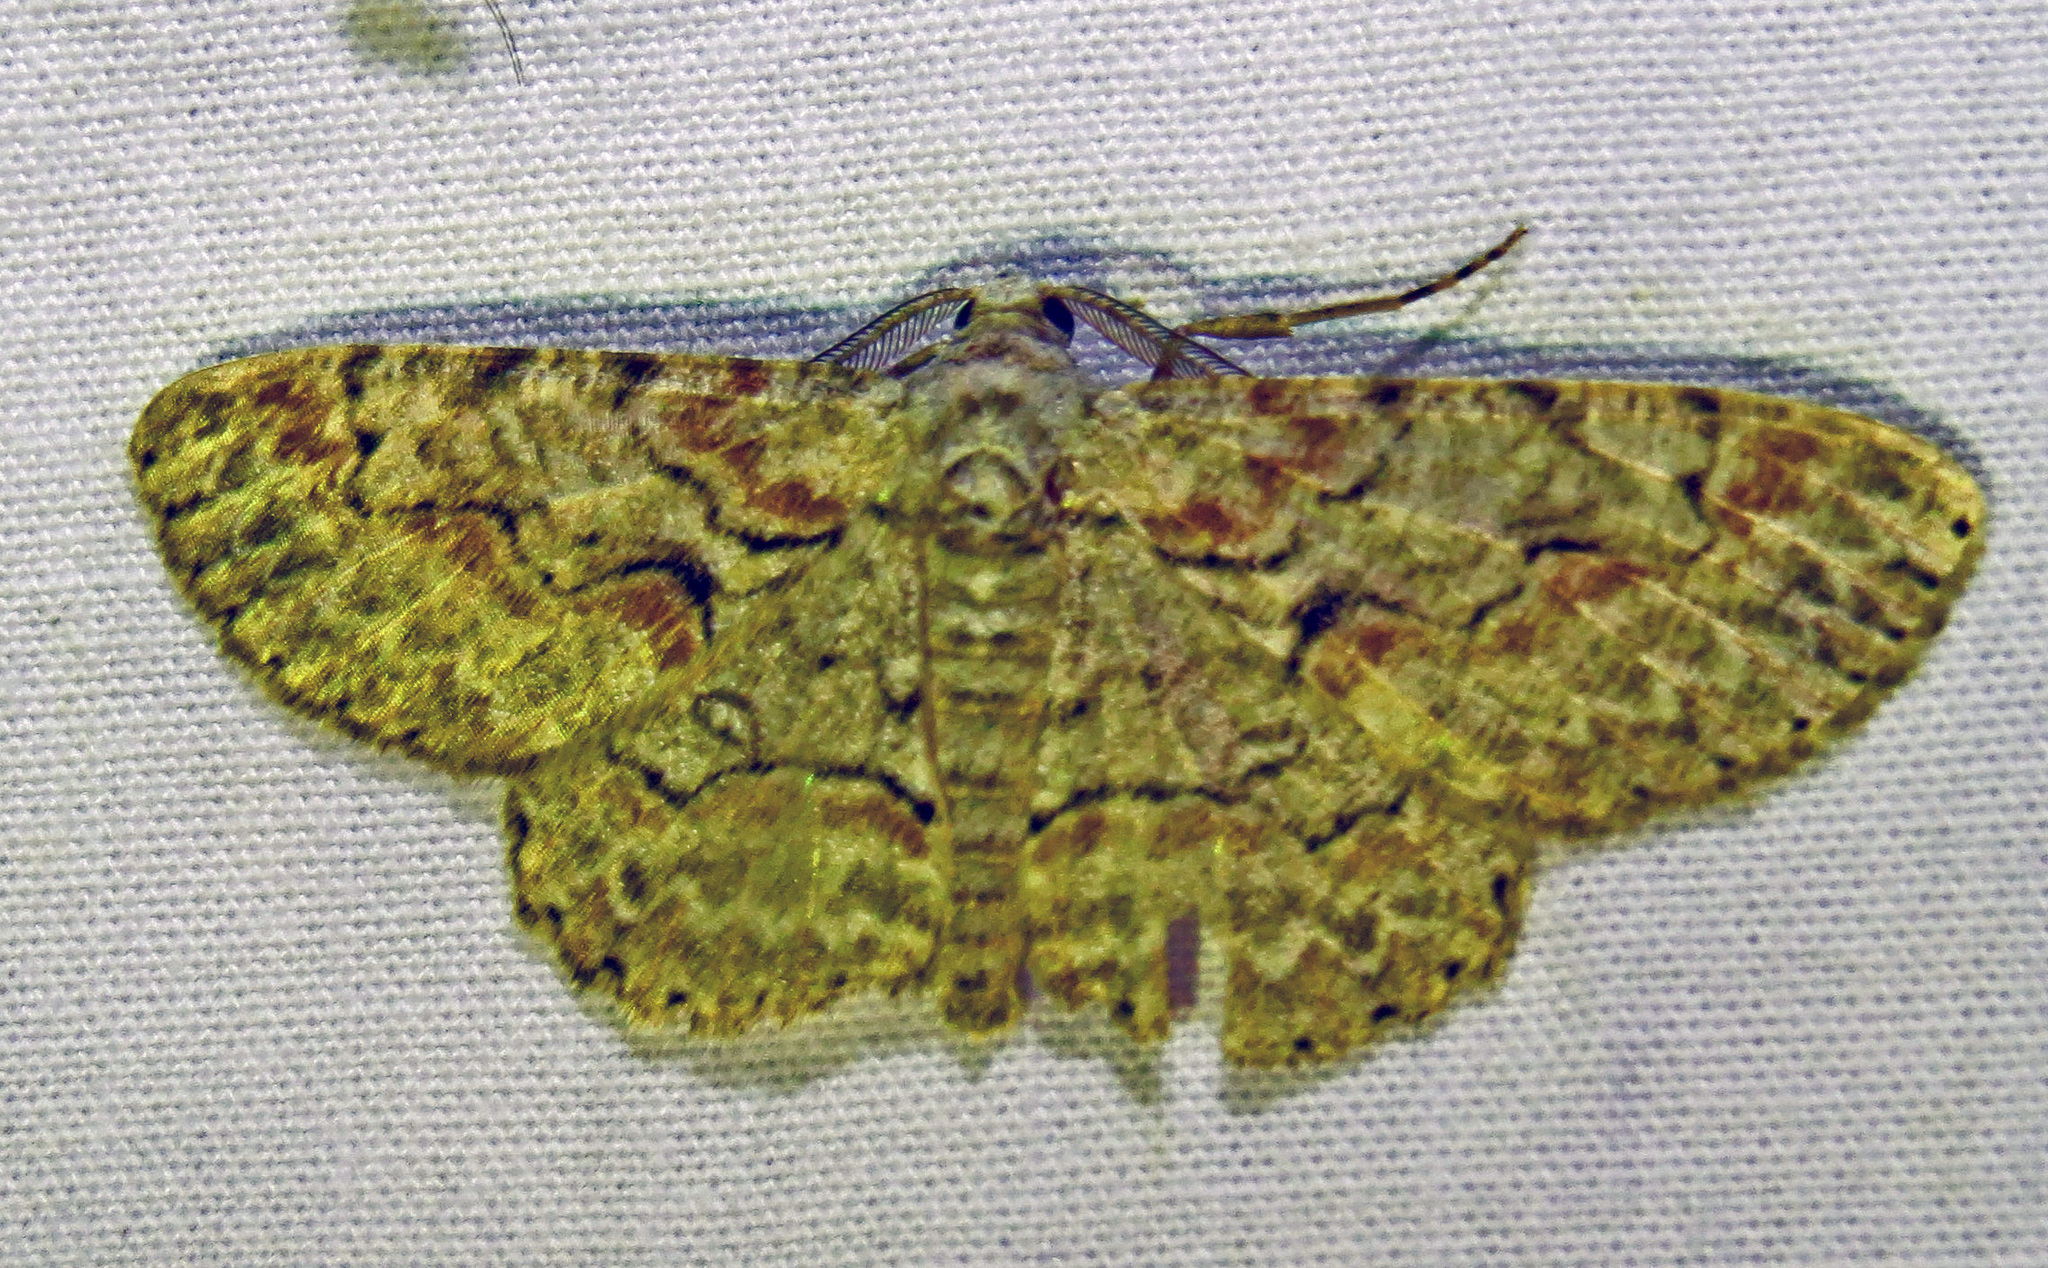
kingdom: Animalia
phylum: Arthropoda
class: Insecta
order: Lepidoptera
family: Geometridae
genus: Iridopsis
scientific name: Iridopsis defectaria
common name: Brown-shaded gray
